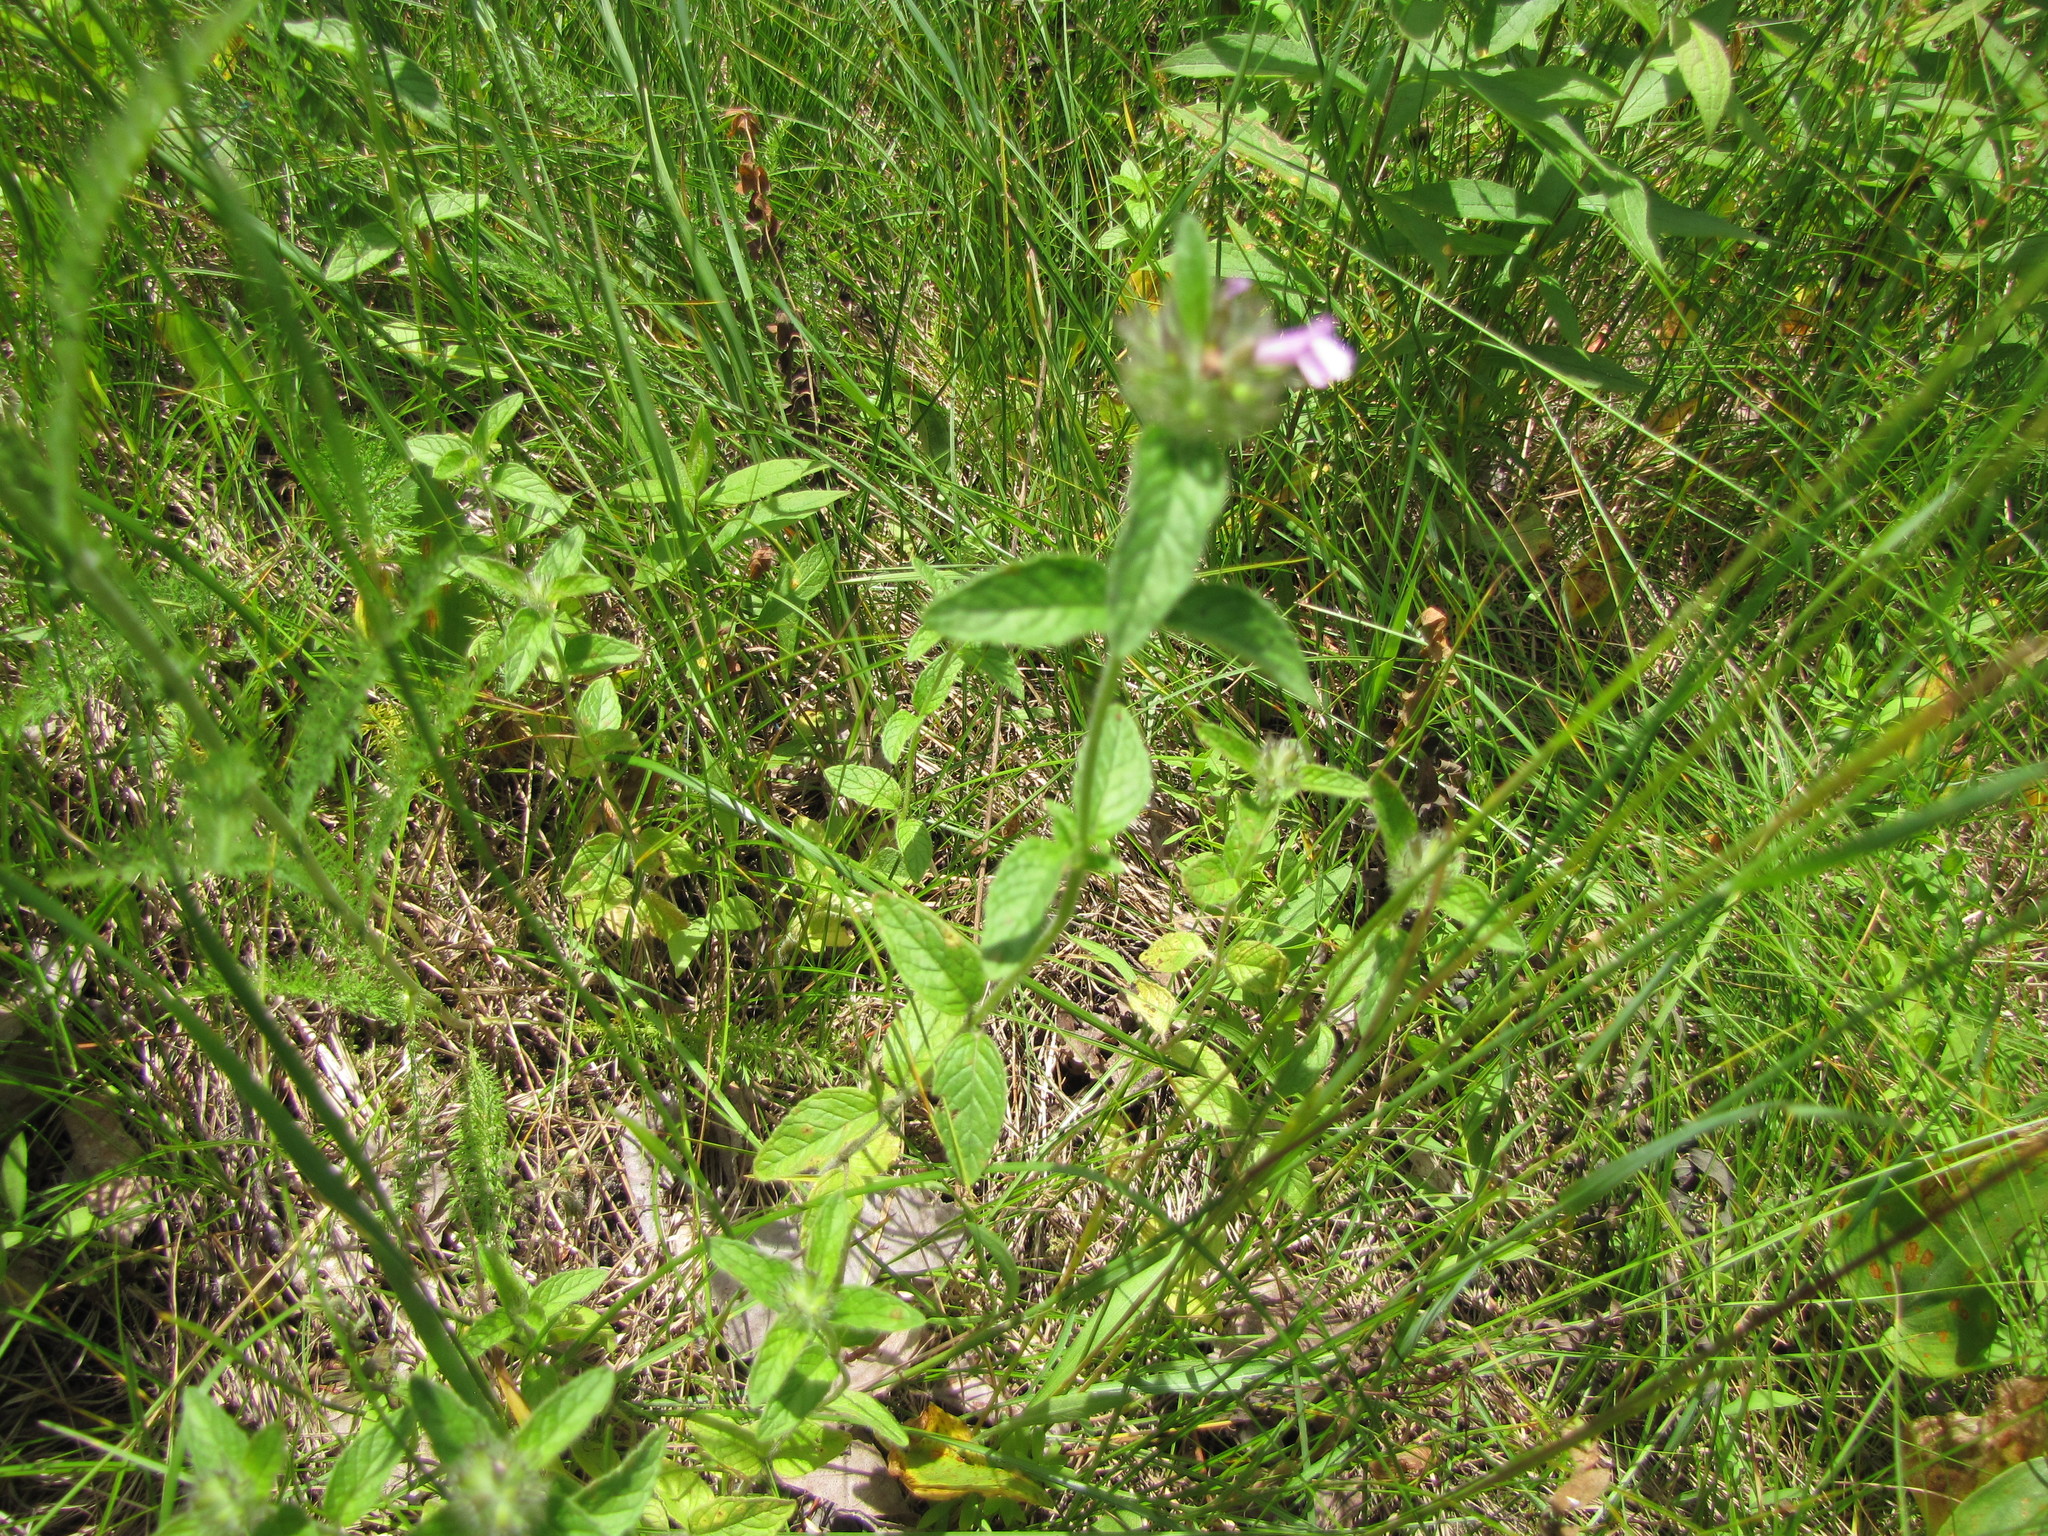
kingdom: Plantae
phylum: Tracheophyta
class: Magnoliopsida
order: Lamiales
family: Lamiaceae
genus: Clinopodium
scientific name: Clinopodium vulgare
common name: Wild basil
